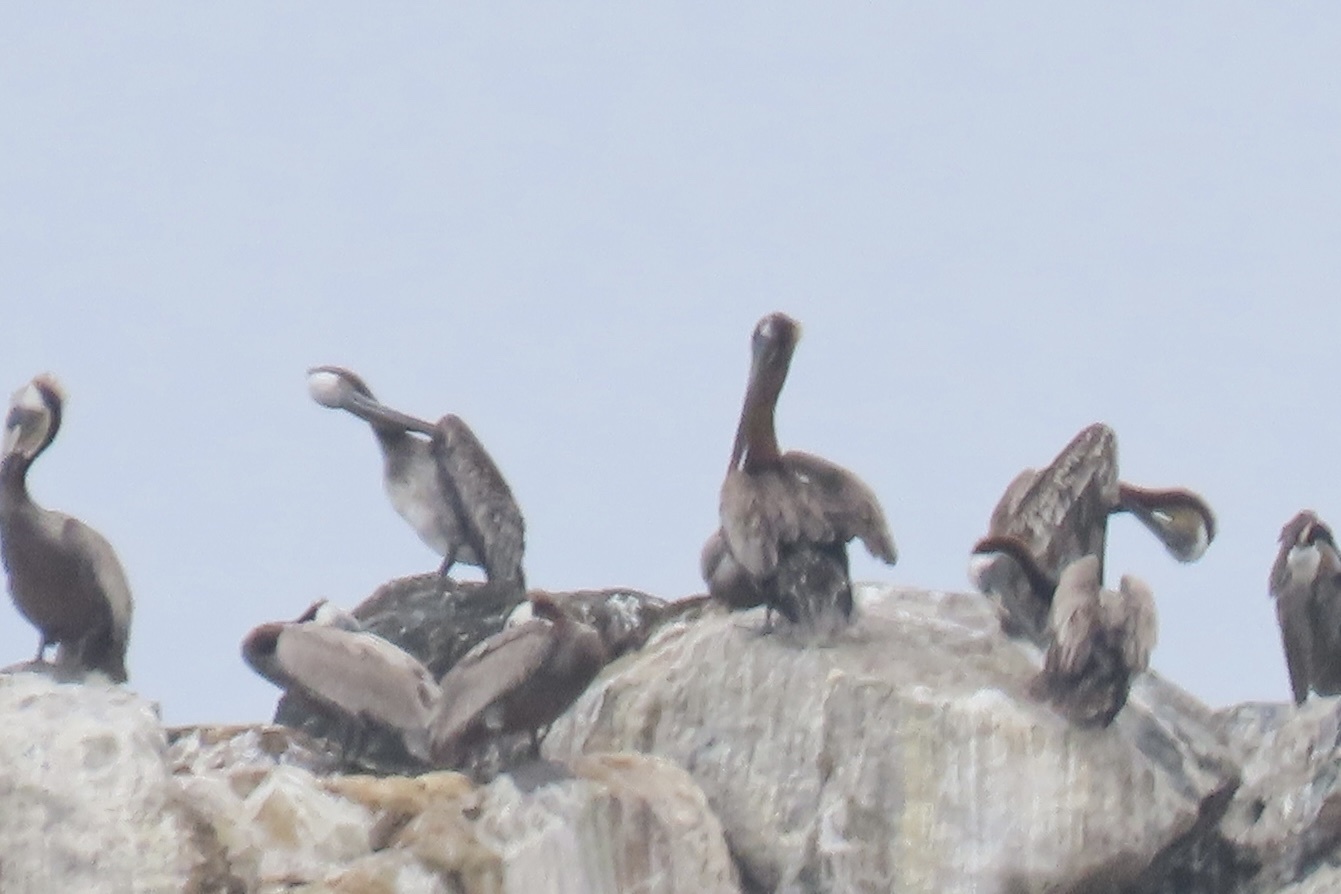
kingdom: Animalia
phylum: Chordata
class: Aves
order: Pelecaniformes
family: Pelecanidae
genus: Pelecanus
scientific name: Pelecanus occidentalis
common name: Brown pelican
